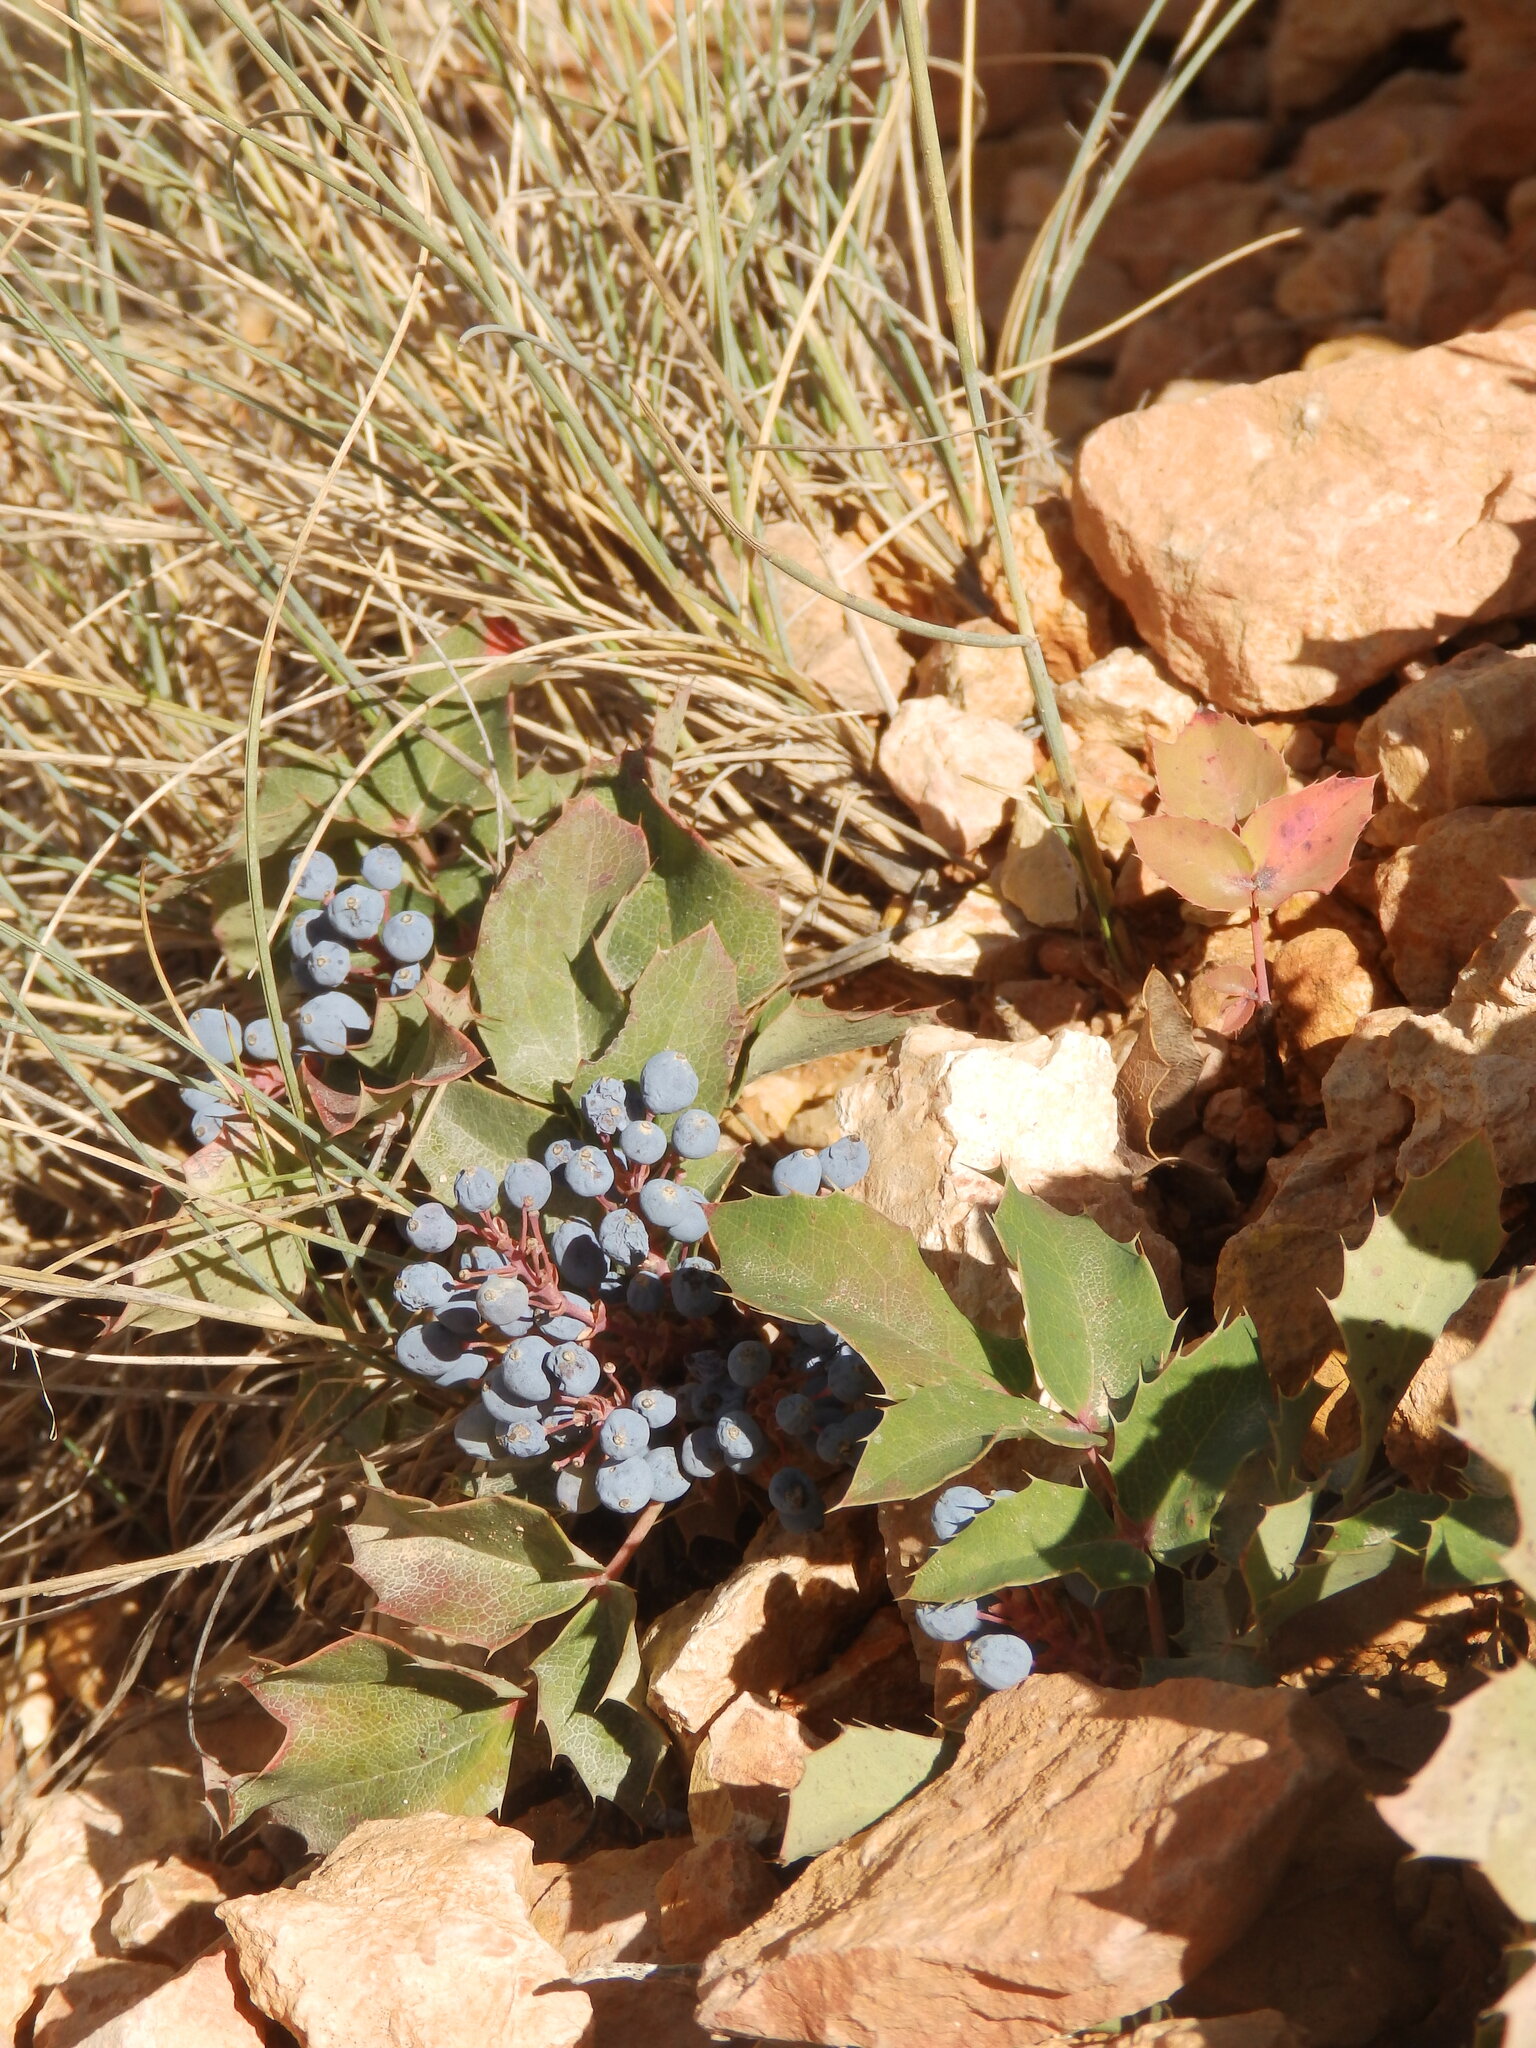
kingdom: Plantae
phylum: Tracheophyta
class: Magnoliopsida
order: Ranunculales
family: Berberidaceae
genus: Mahonia
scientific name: Mahonia repens
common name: Creeping oregon-grape
